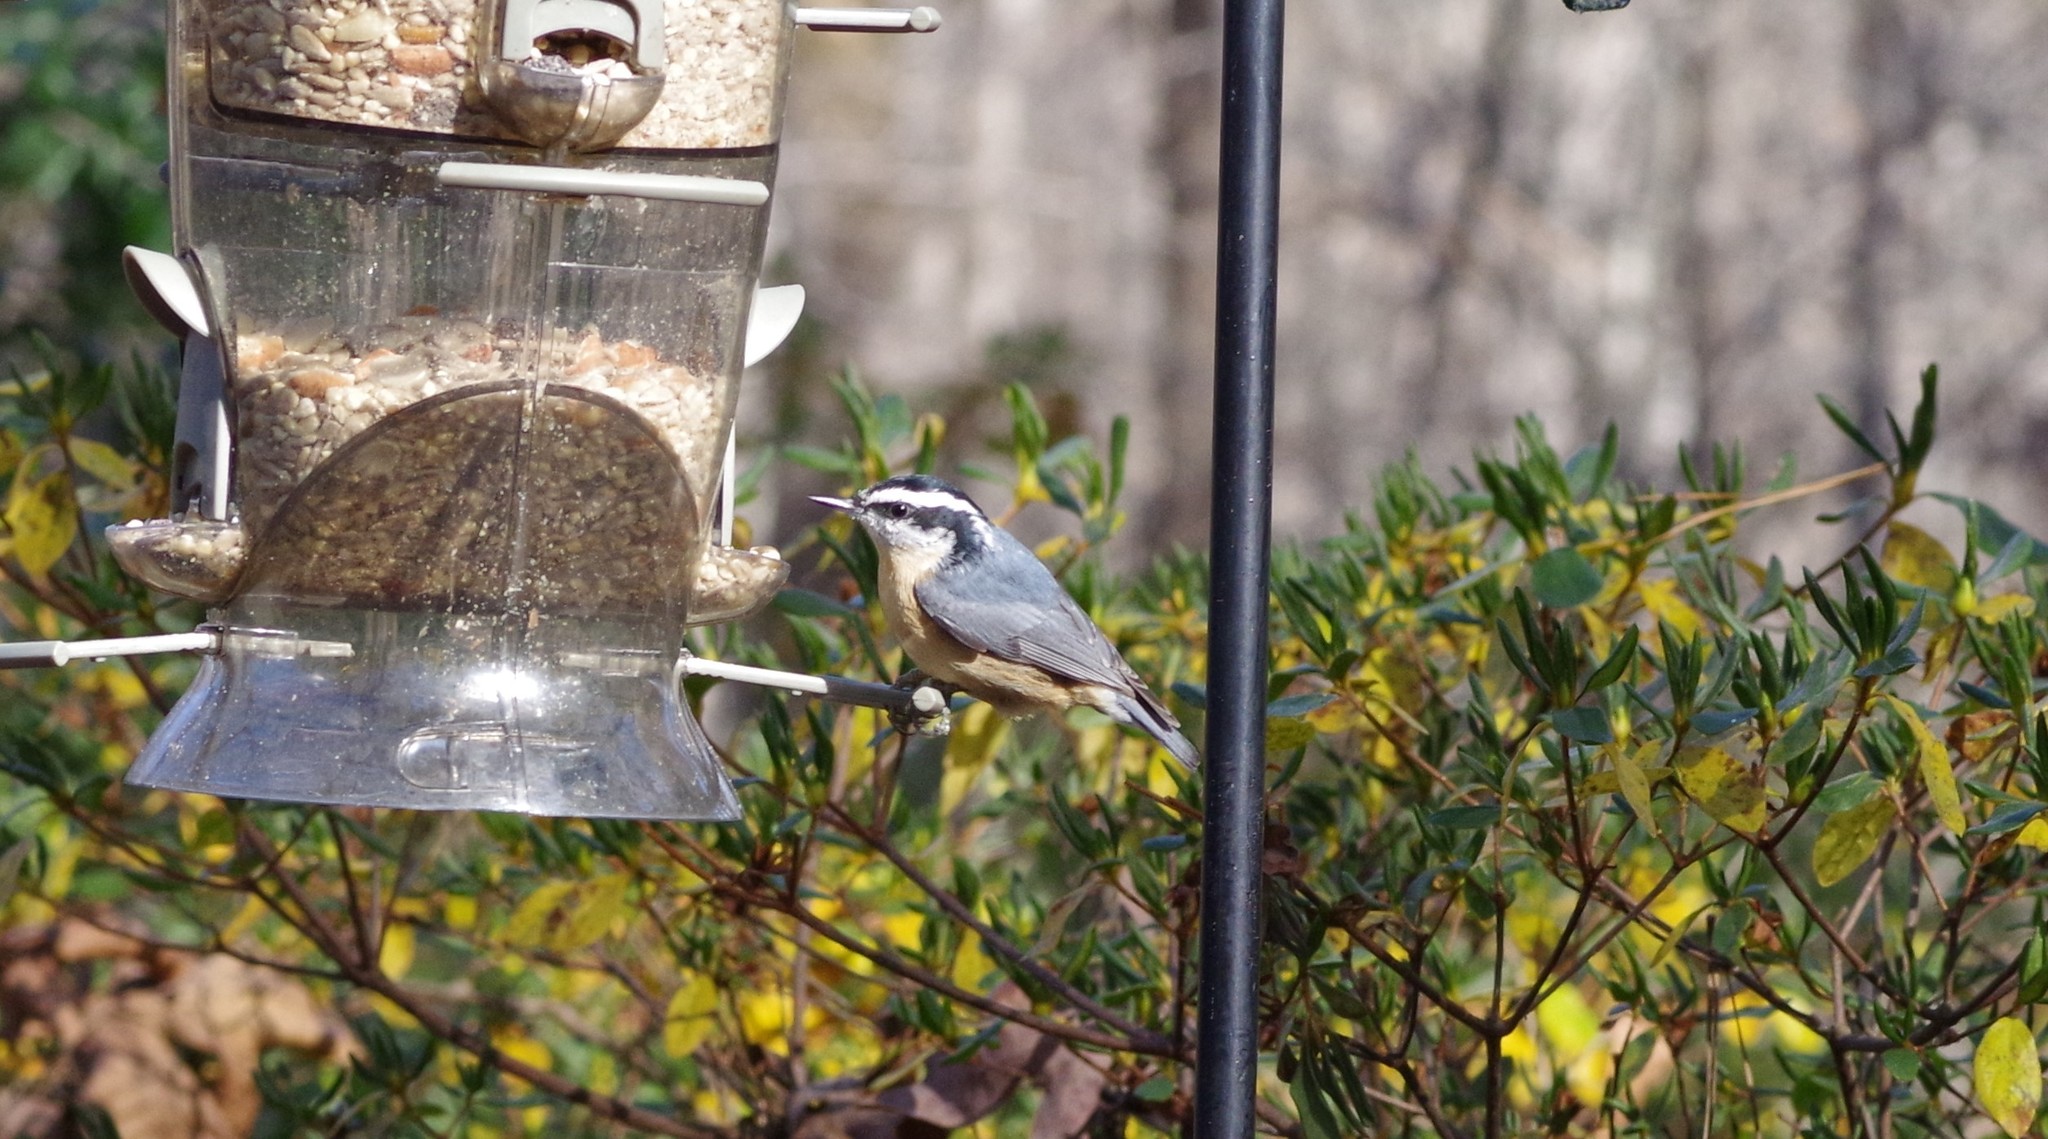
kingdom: Animalia
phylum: Chordata
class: Aves
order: Passeriformes
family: Sittidae
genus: Sitta
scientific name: Sitta canadensis
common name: Red-breasted nuthatch
